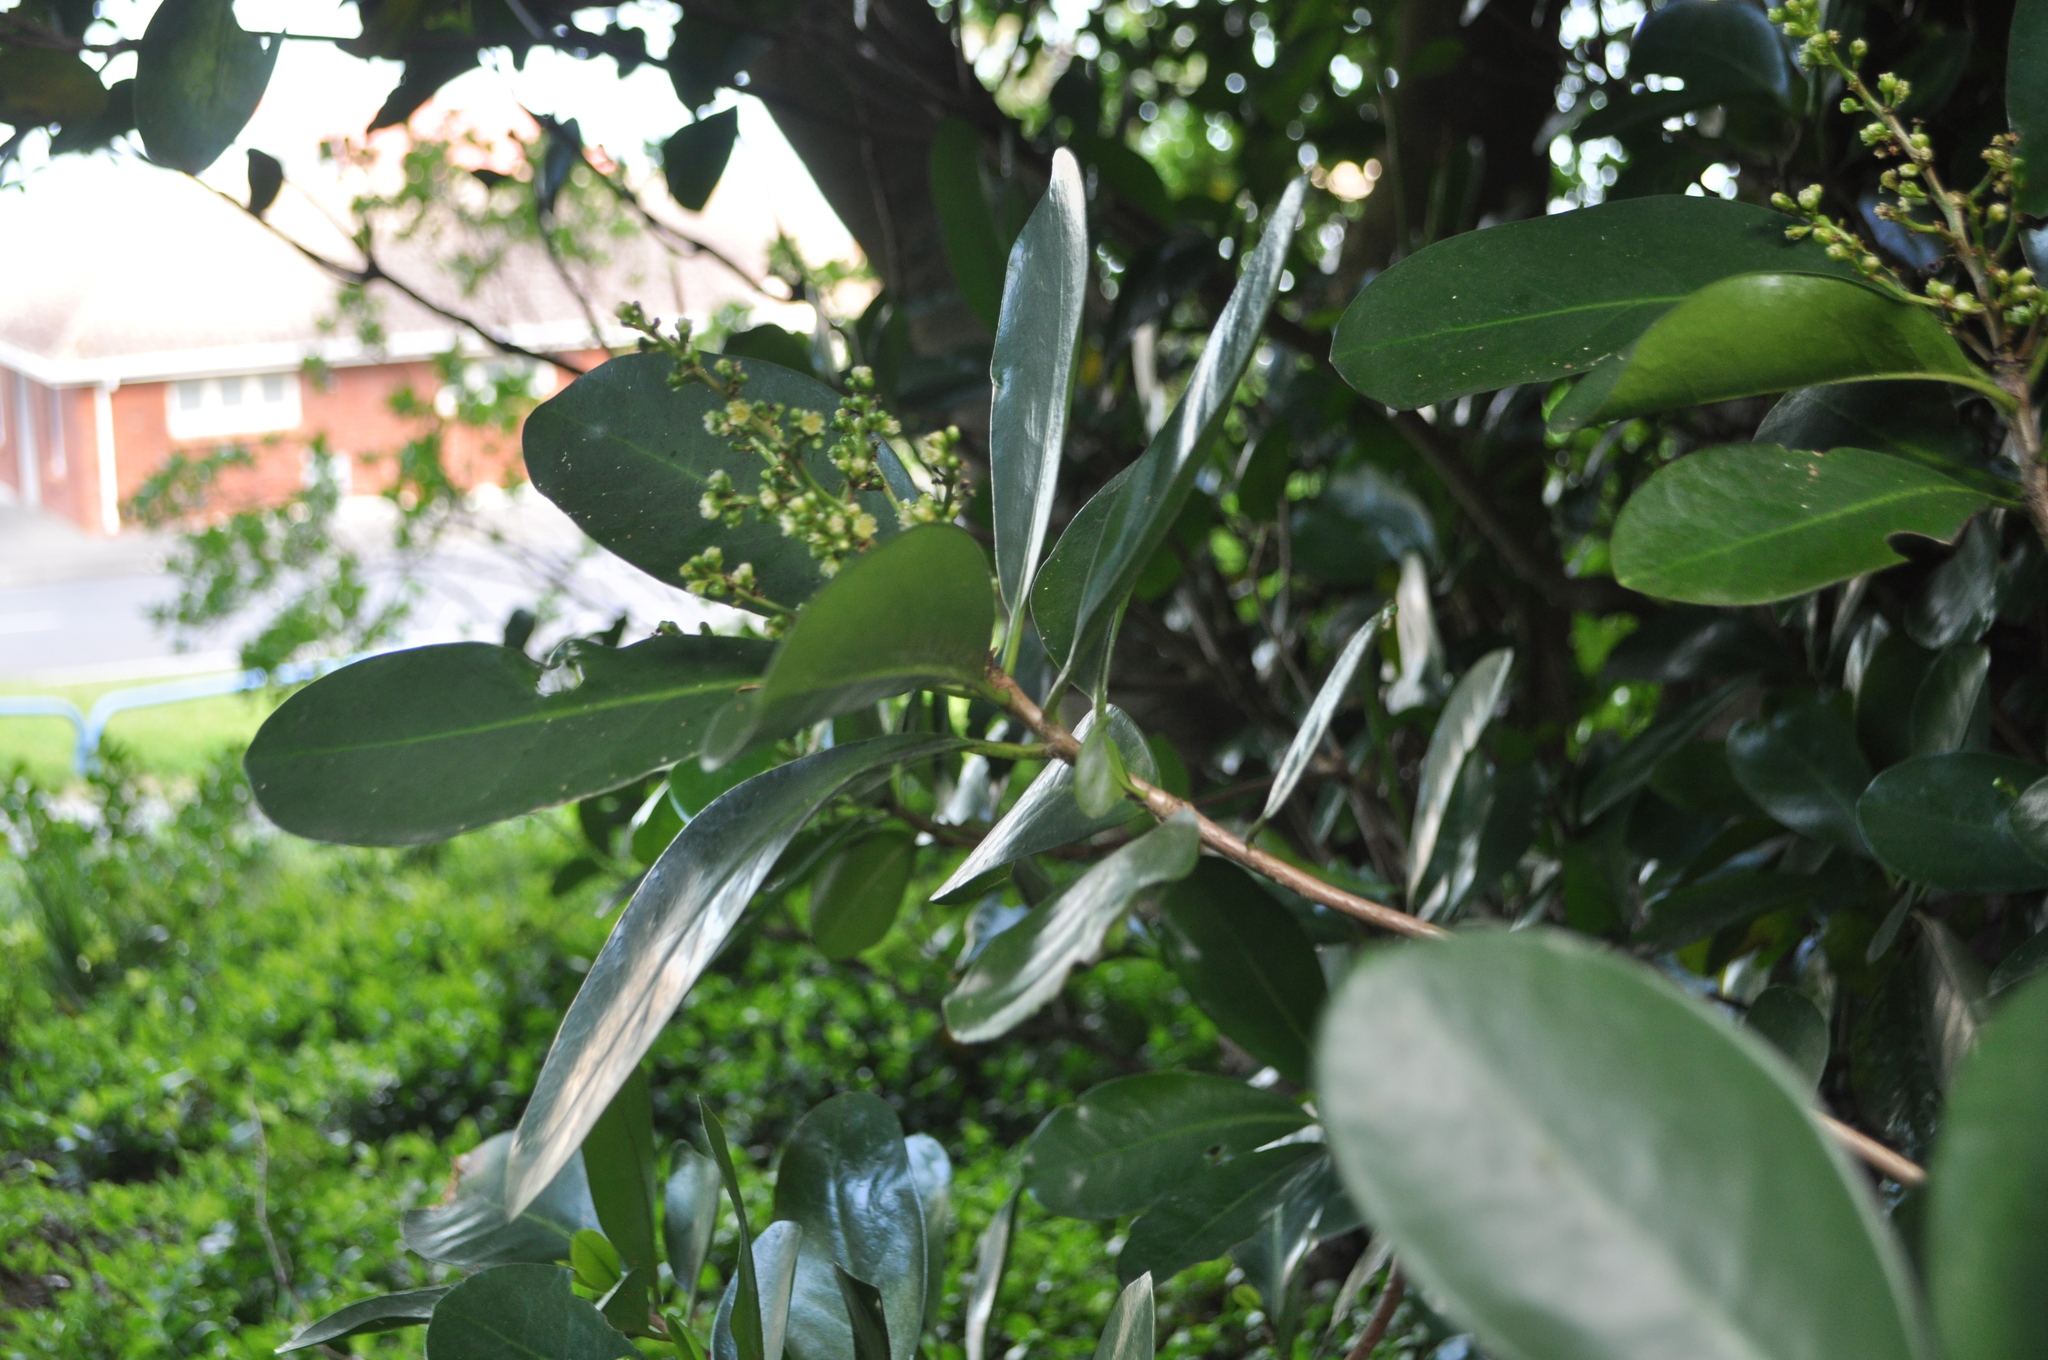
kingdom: Plantae
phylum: Tracheophyta
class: Magnoliopsida
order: Cucurbitales
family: Corynocarpaceae
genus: Corynocarpus
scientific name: Corynocarpus laevigatus
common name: New zealand laurel
